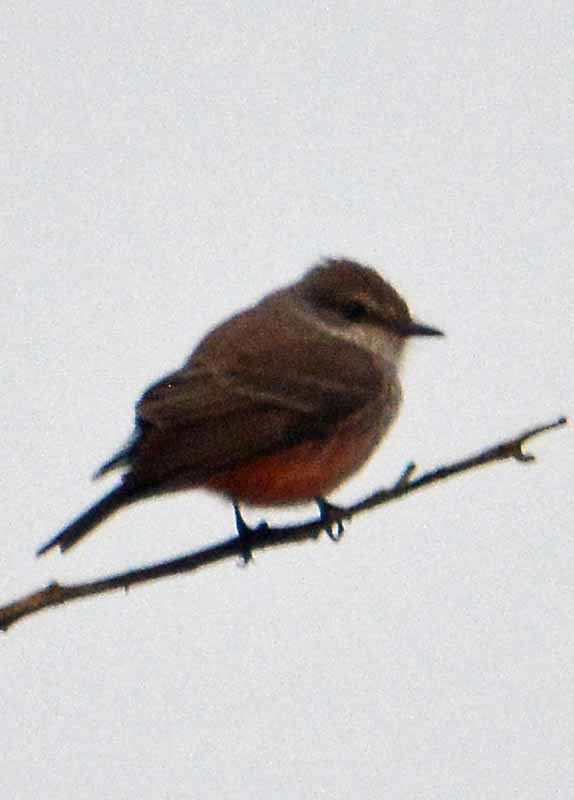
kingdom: Animalia
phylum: Chordata
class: Aves
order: Passeriformes
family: Tyrannidae
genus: Pyrocephalus
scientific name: Pyrocephalus rubinus
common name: Vermilion flycatcher
